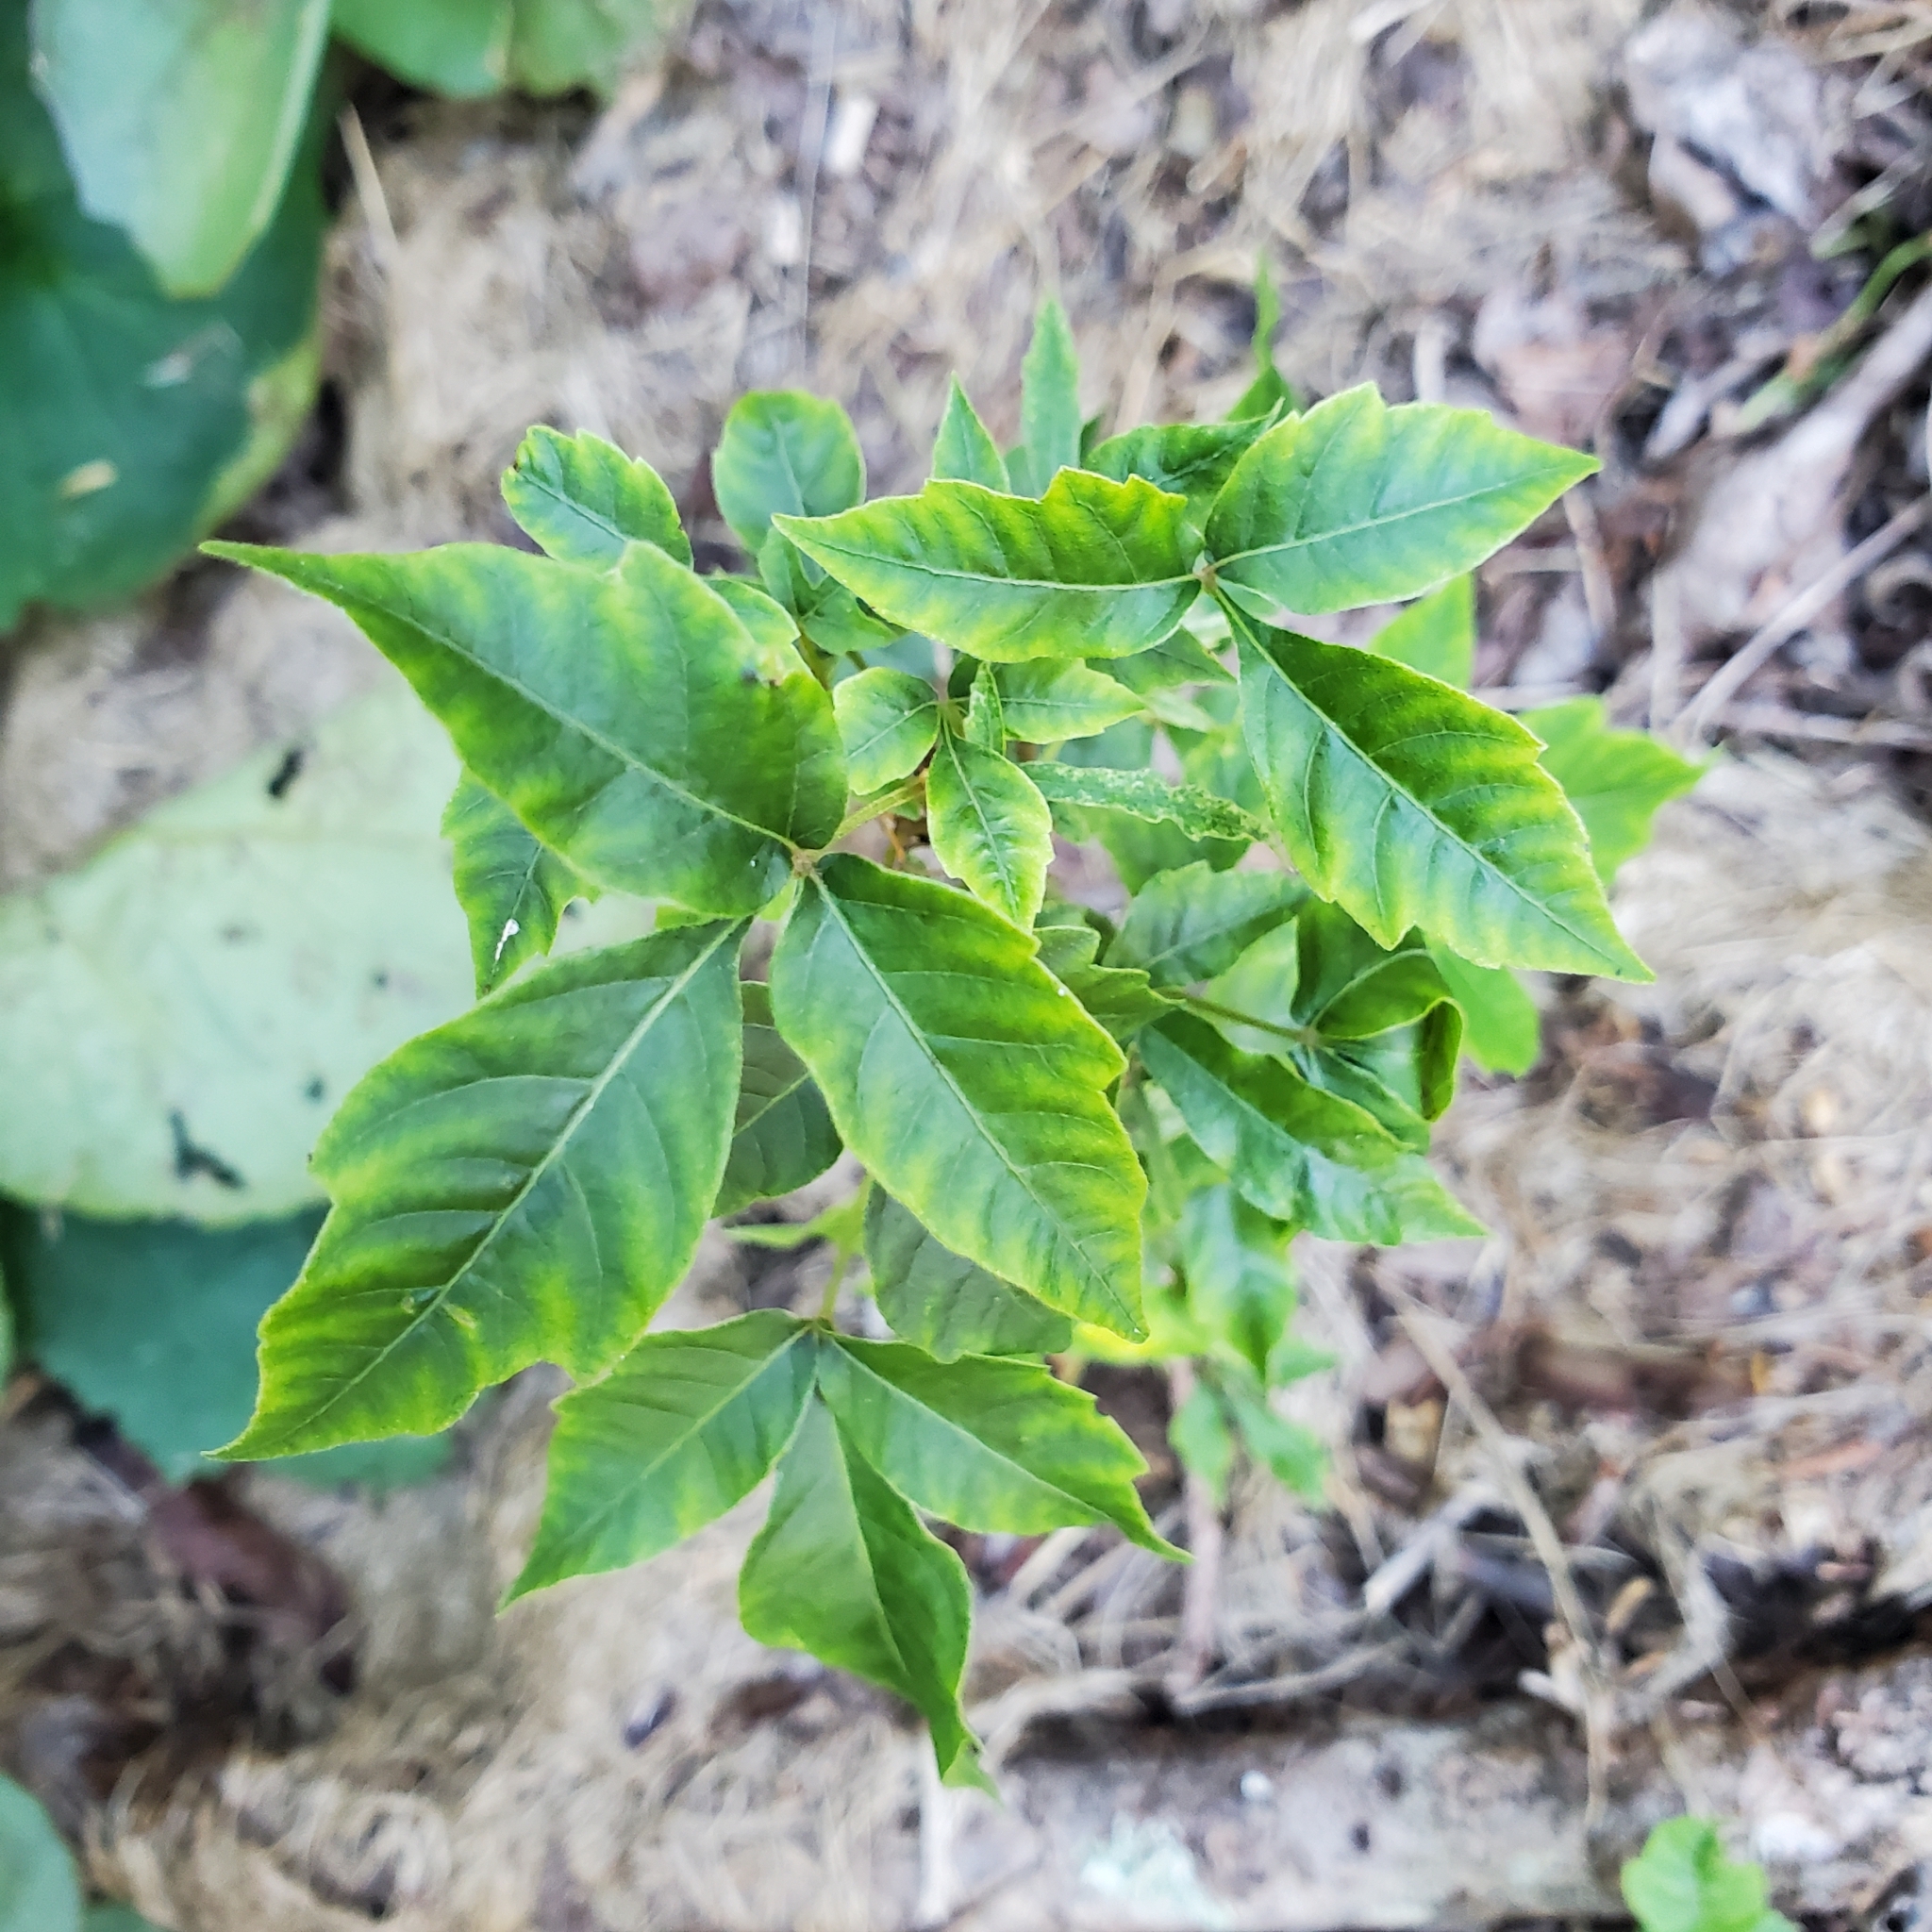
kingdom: Plantae
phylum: Tracheophyta
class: Magnoliopsida
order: Sapindales
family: Anacardiaceae
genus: Toxicodendron
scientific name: Toxicodendron radicans
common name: Poison ivy
